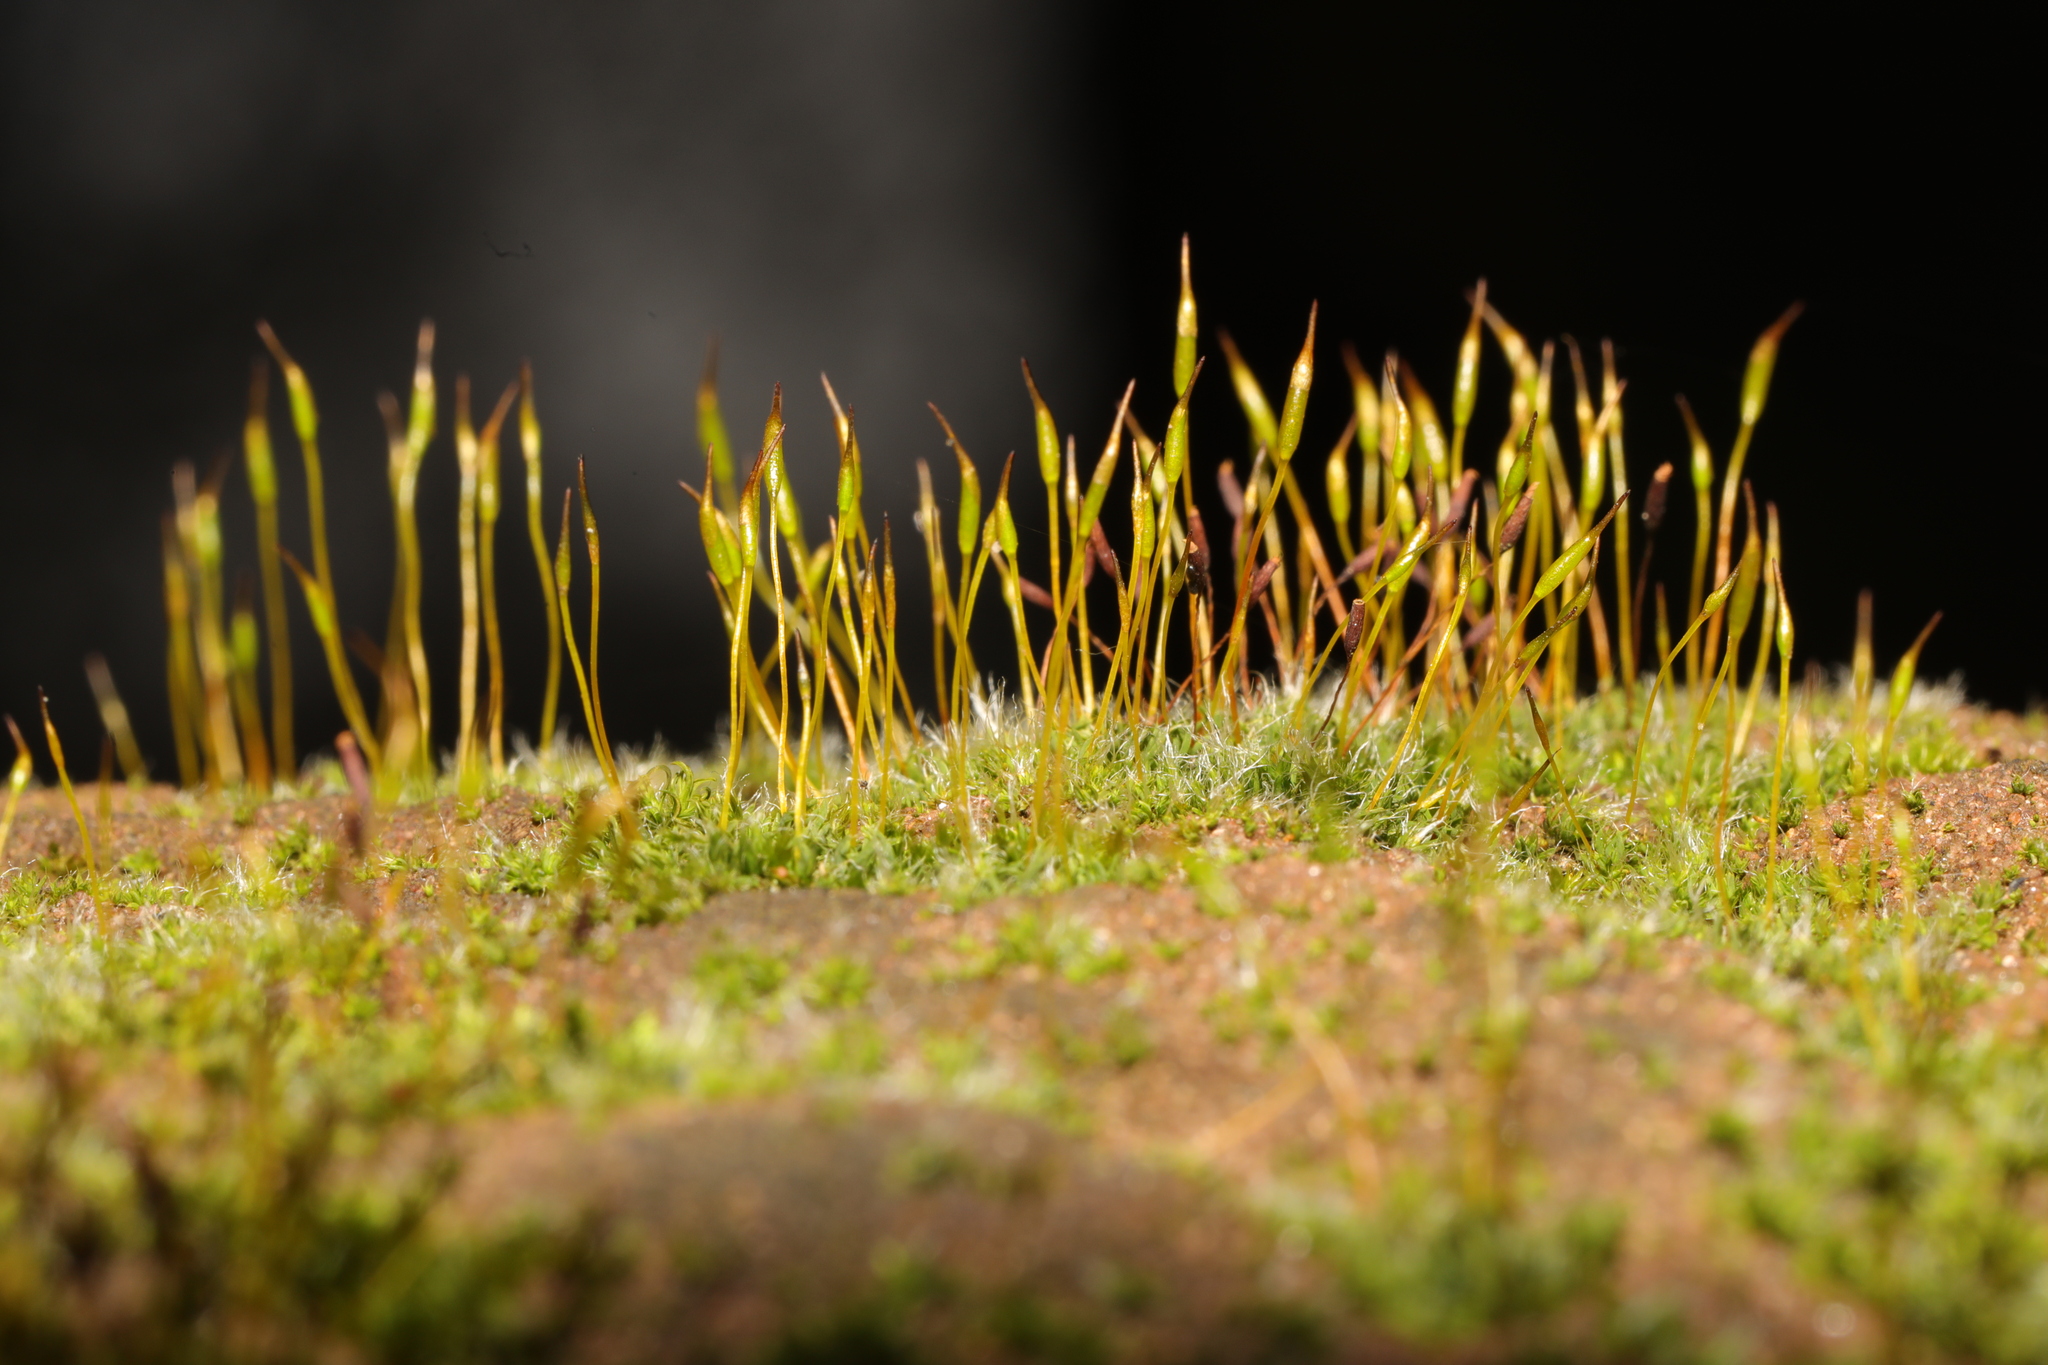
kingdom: Plantae
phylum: Bryophyta
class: Bryopsida
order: Pottiales
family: Pottiaceae
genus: Tortula
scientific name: Tortula muralis
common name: Wall screw-moss
